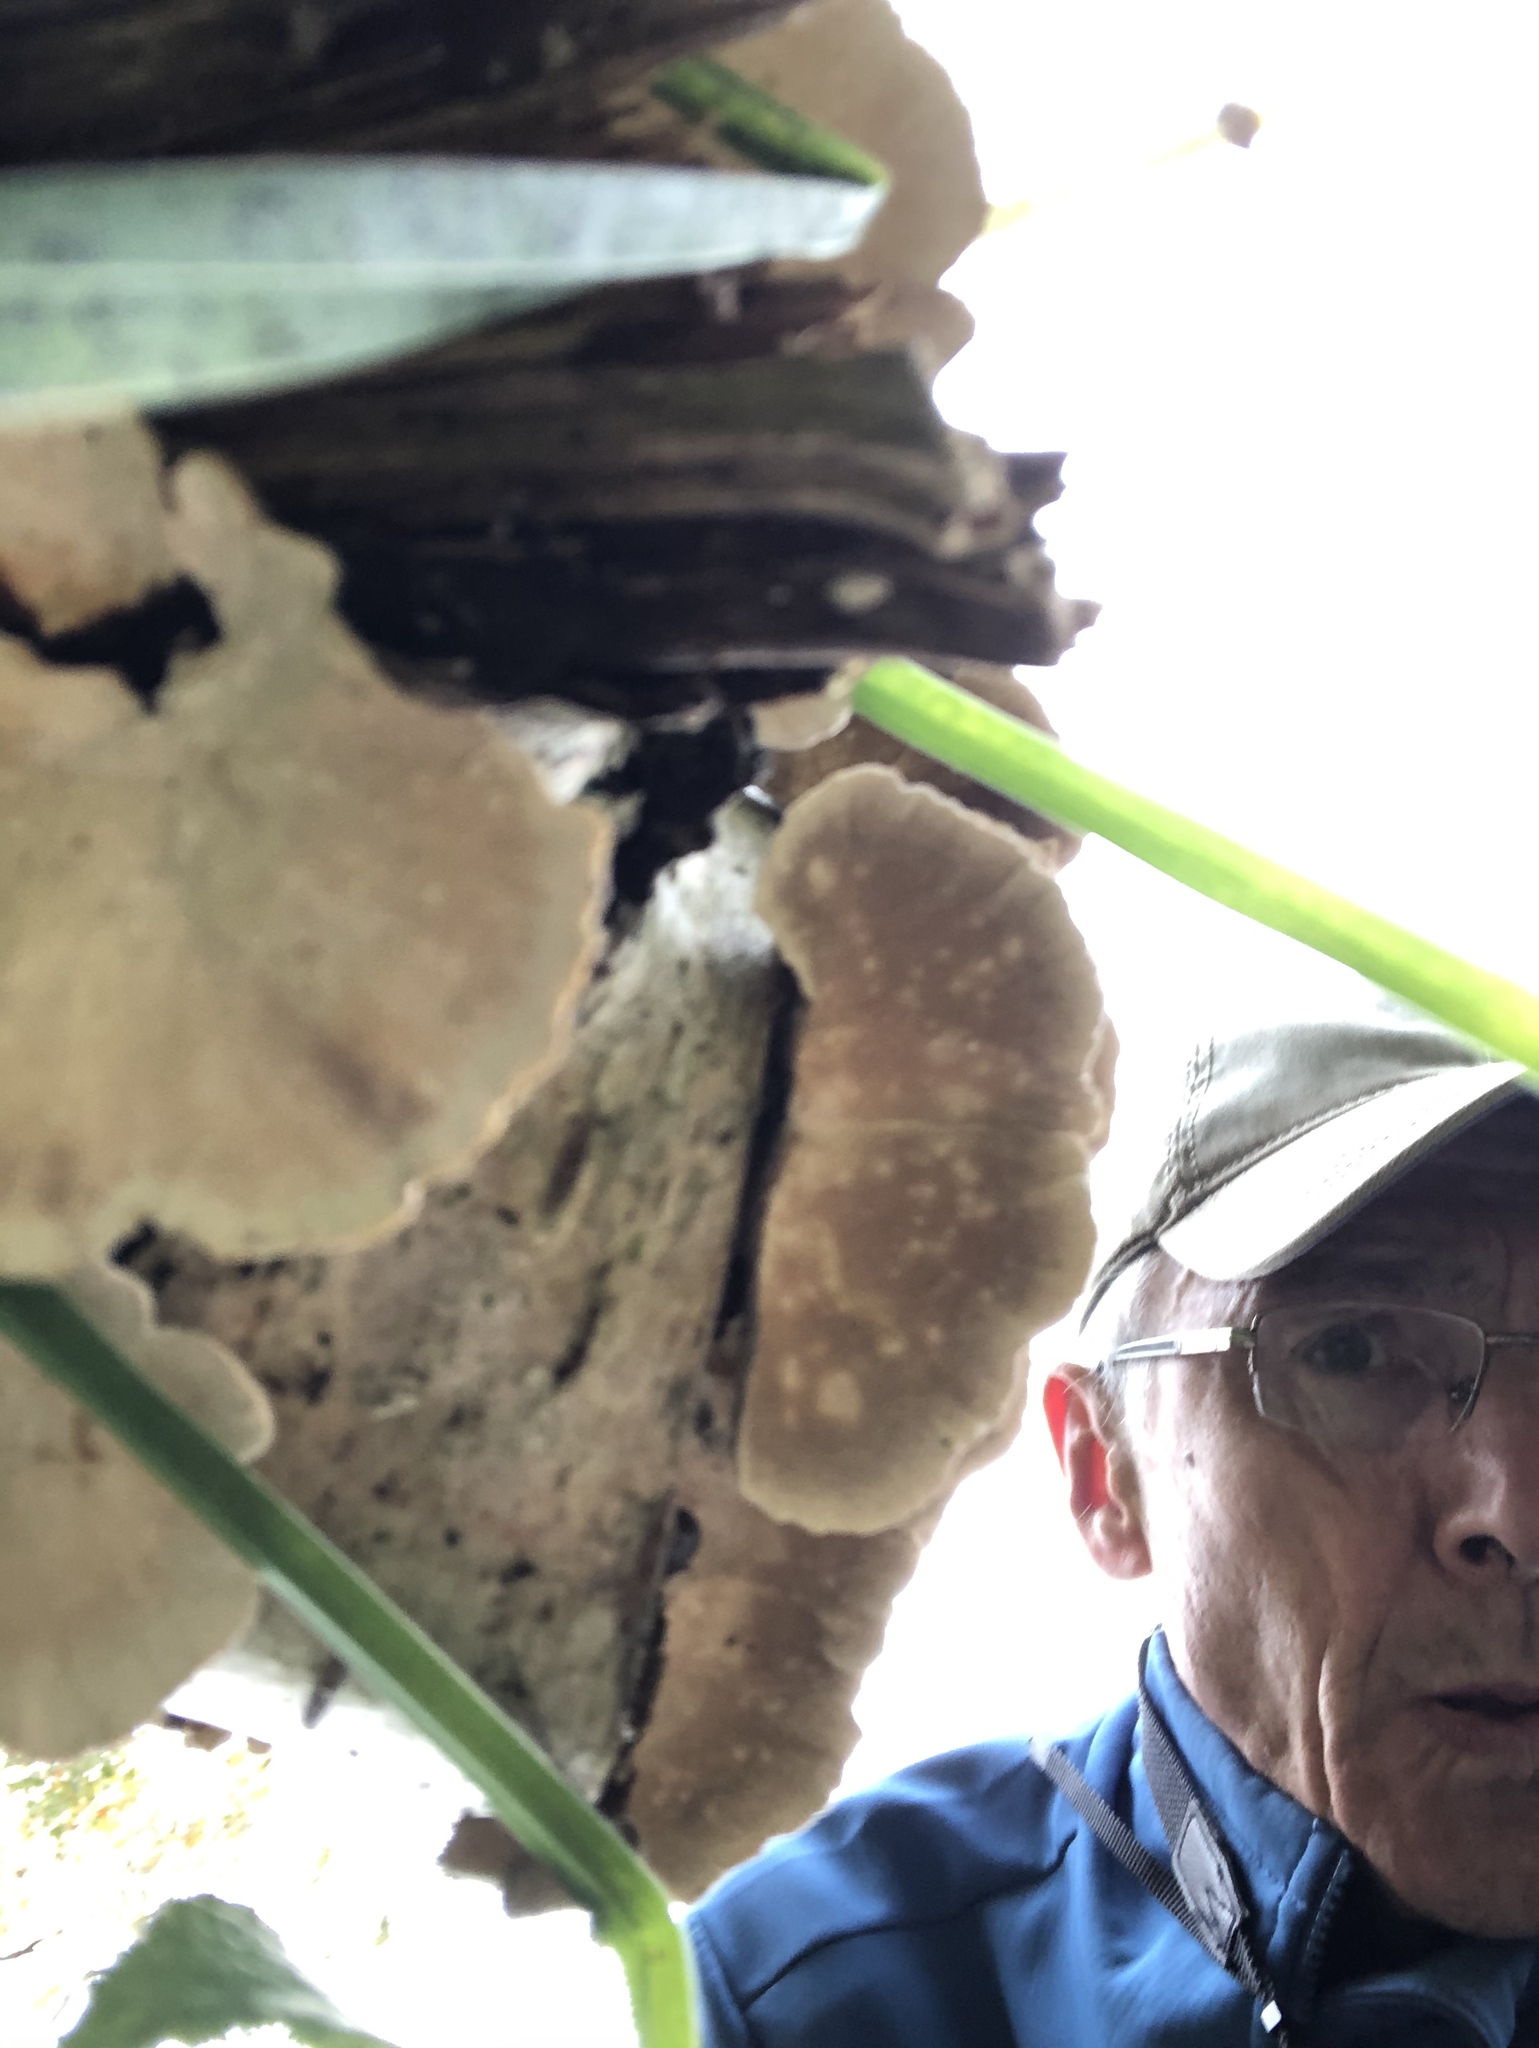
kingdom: Fungi
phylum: Basidiomycota
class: Agaricomycetes
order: Polyporales
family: Polyporaceae
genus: Trametes
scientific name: Trametes versicolor
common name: Turkeytail
